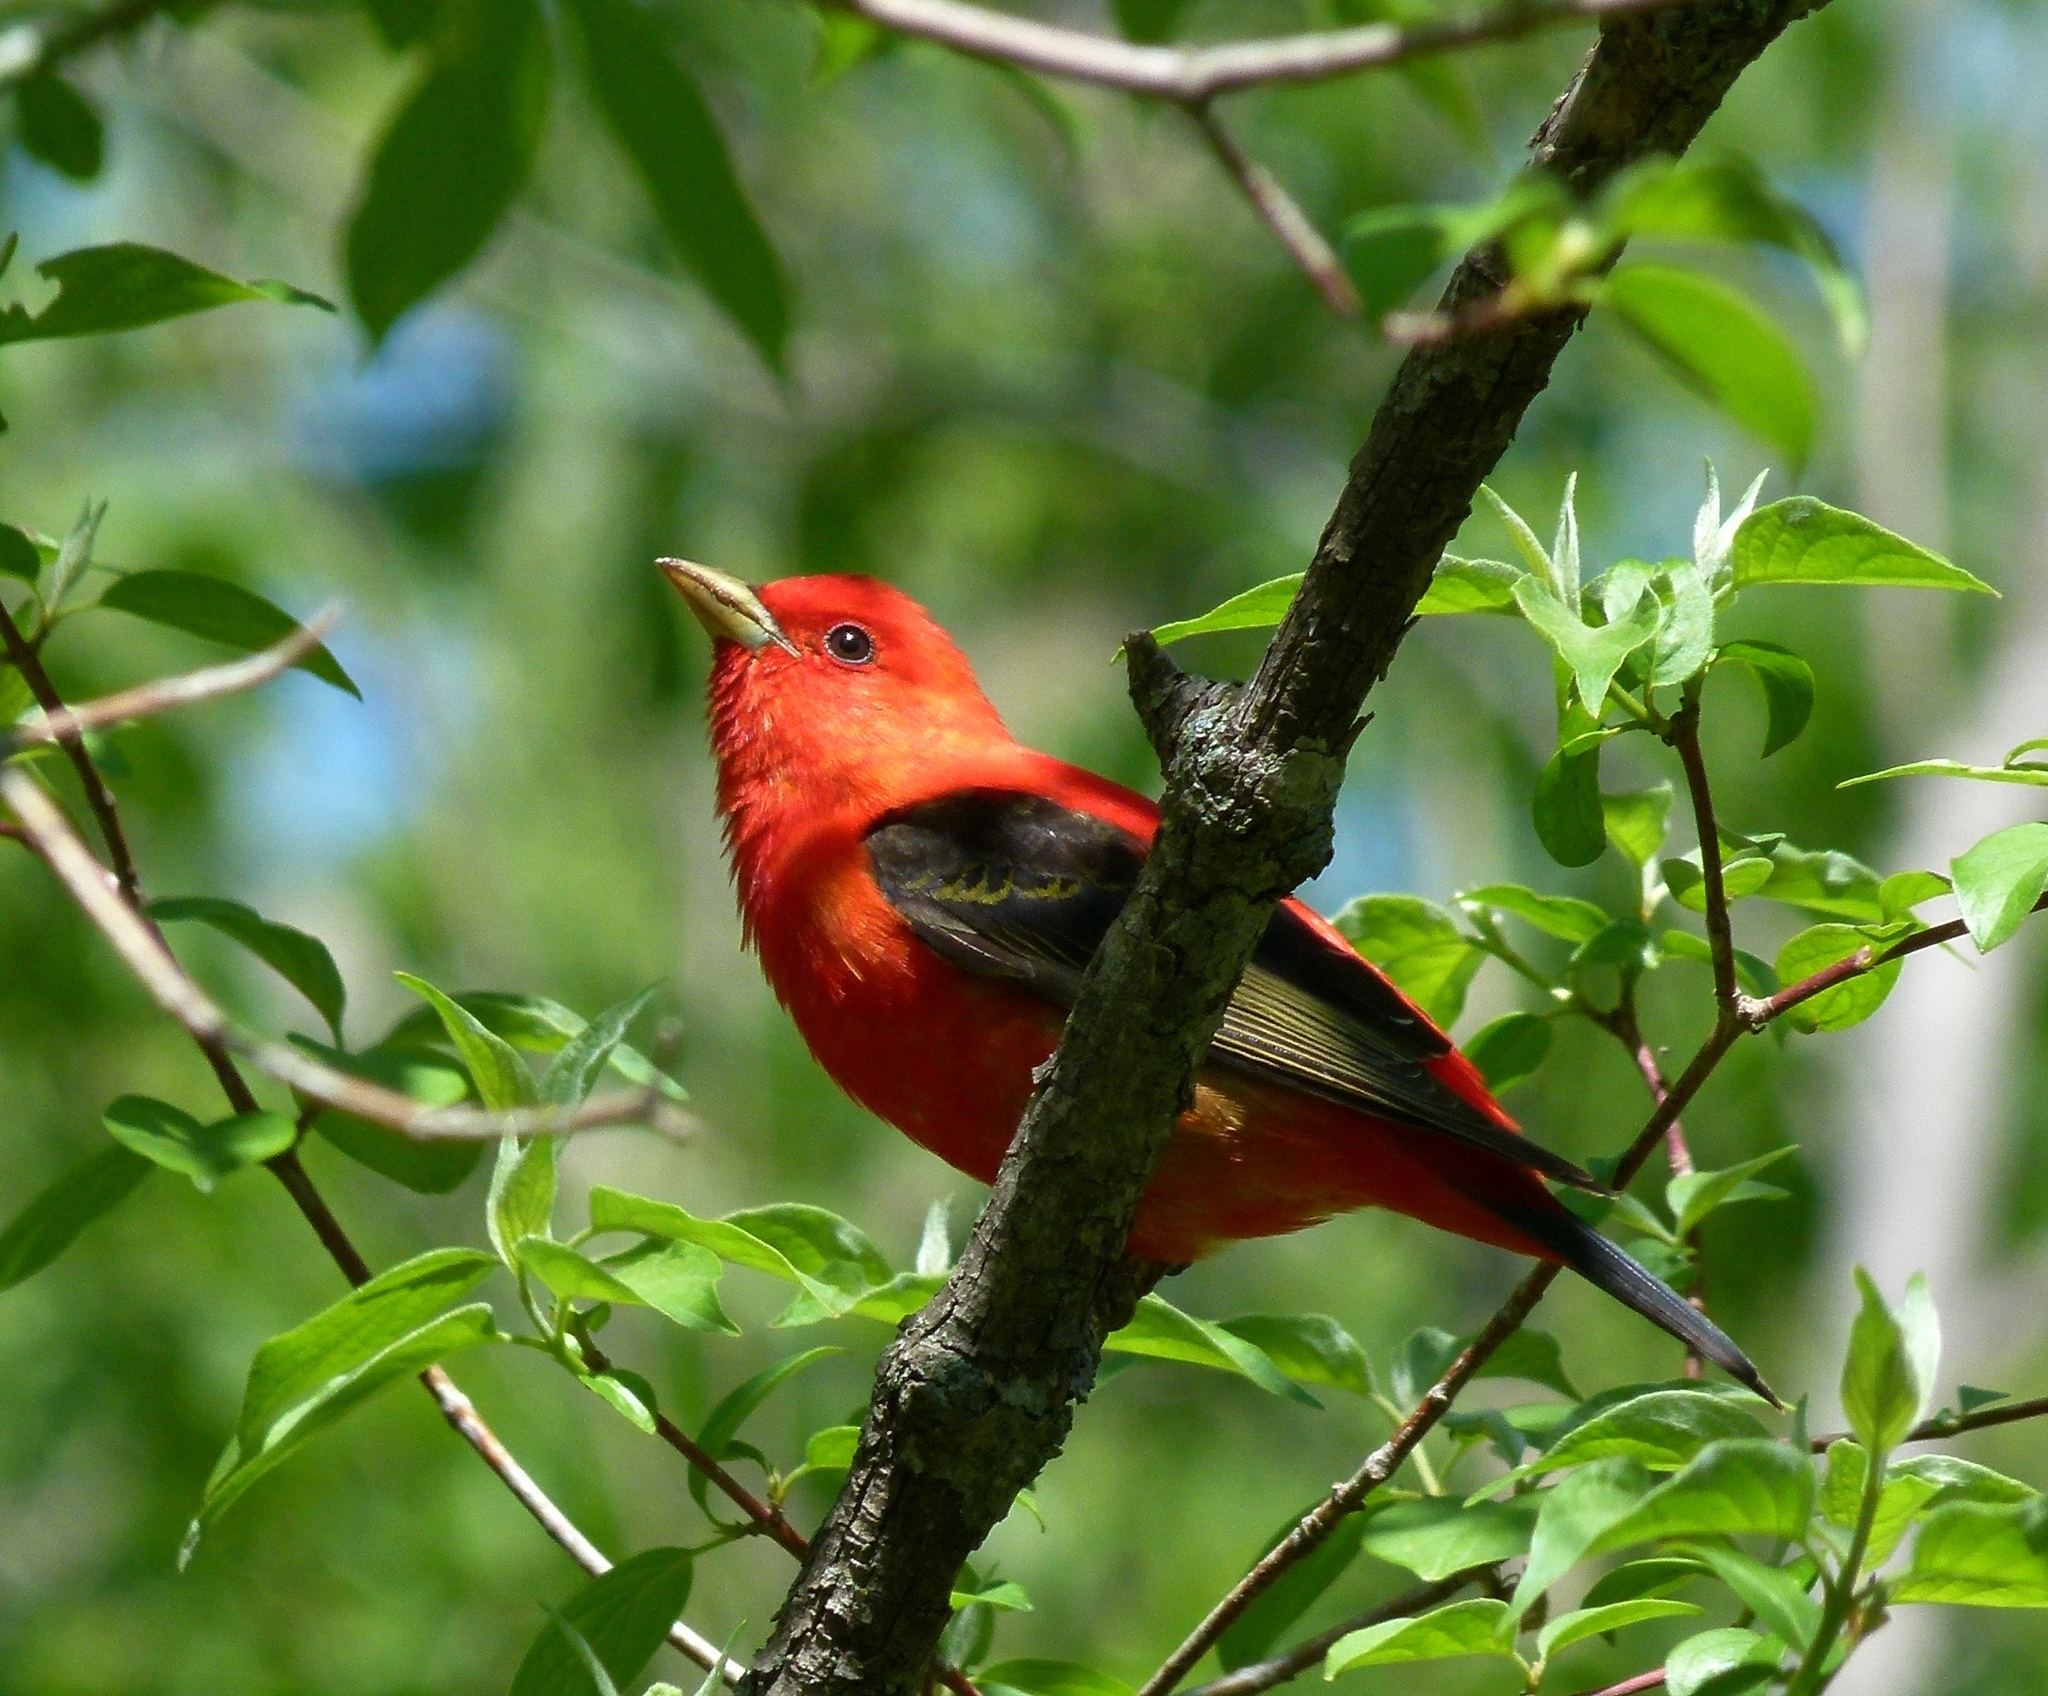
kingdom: Animalia
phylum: Chordata
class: Aves
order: Passeriformes
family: Cardinalidae
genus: Piranga
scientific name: Piranga olivacea
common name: Scarlet tanager
